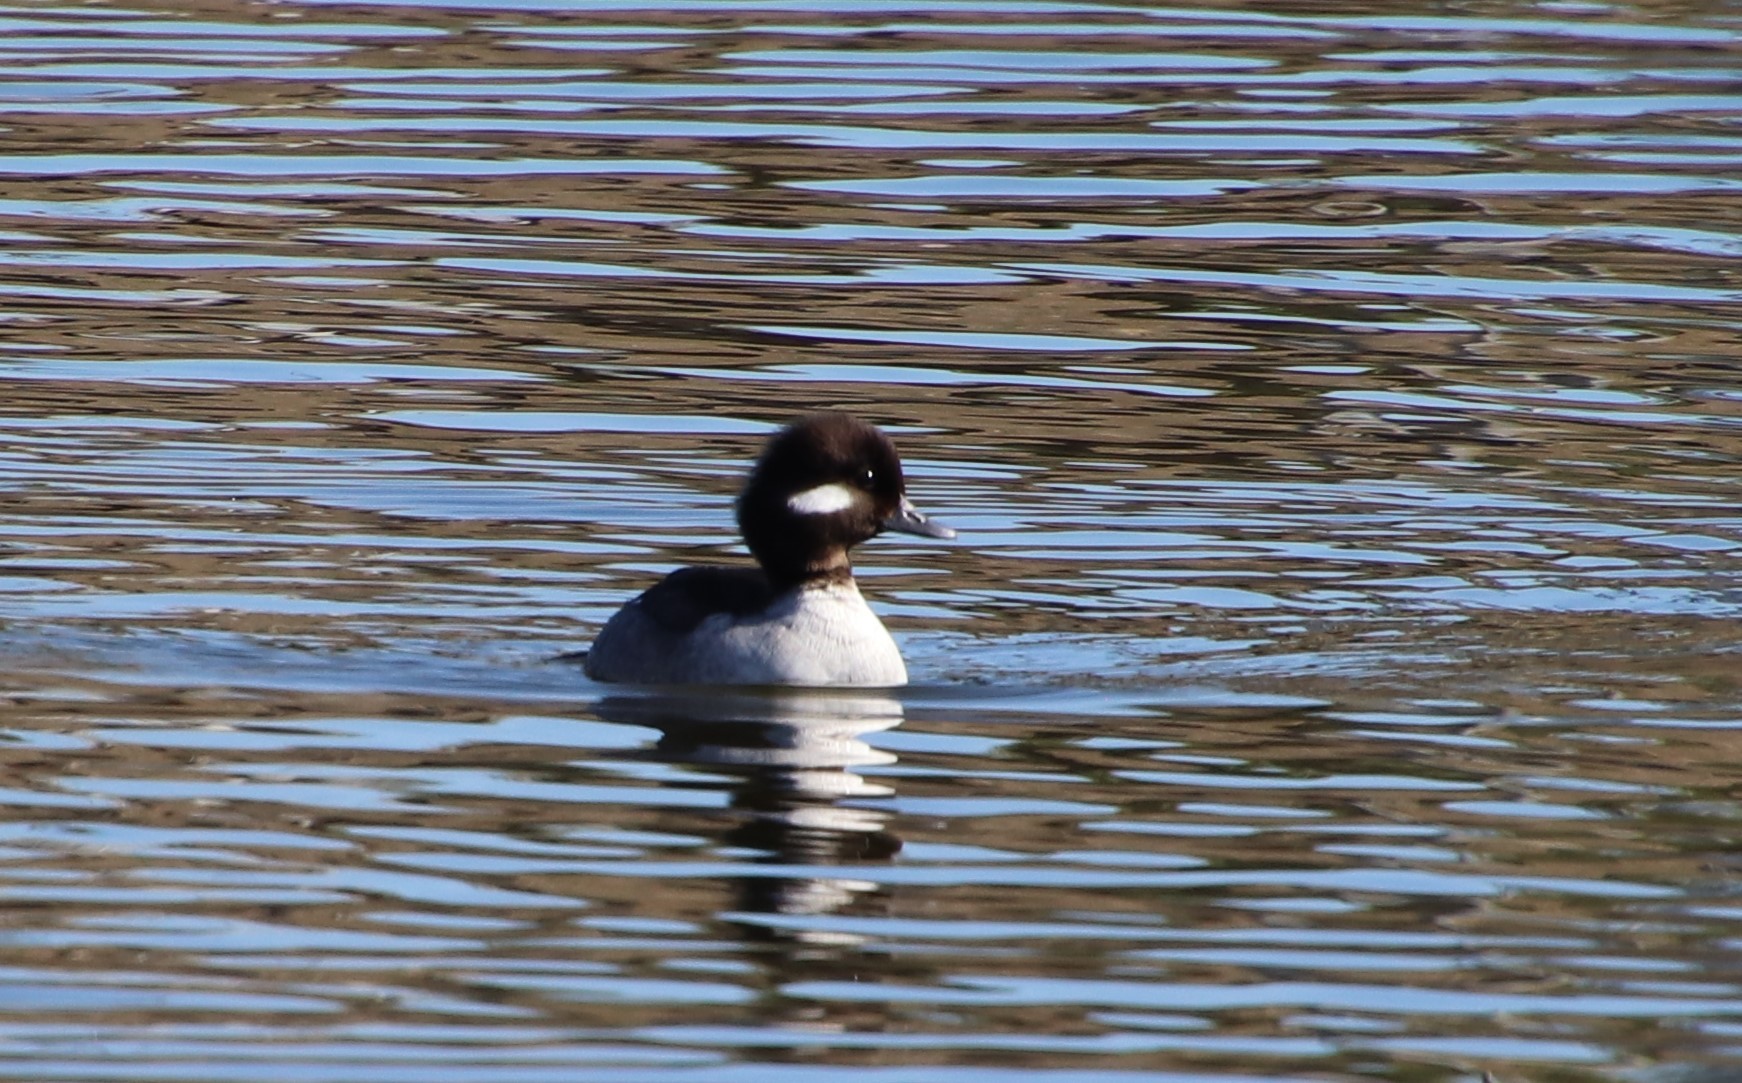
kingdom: Animalia
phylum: Chordata
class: Aves
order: Anseriformes
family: Anatidae
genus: Bucephala
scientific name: Bucephala albeola
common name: Bufflehead
